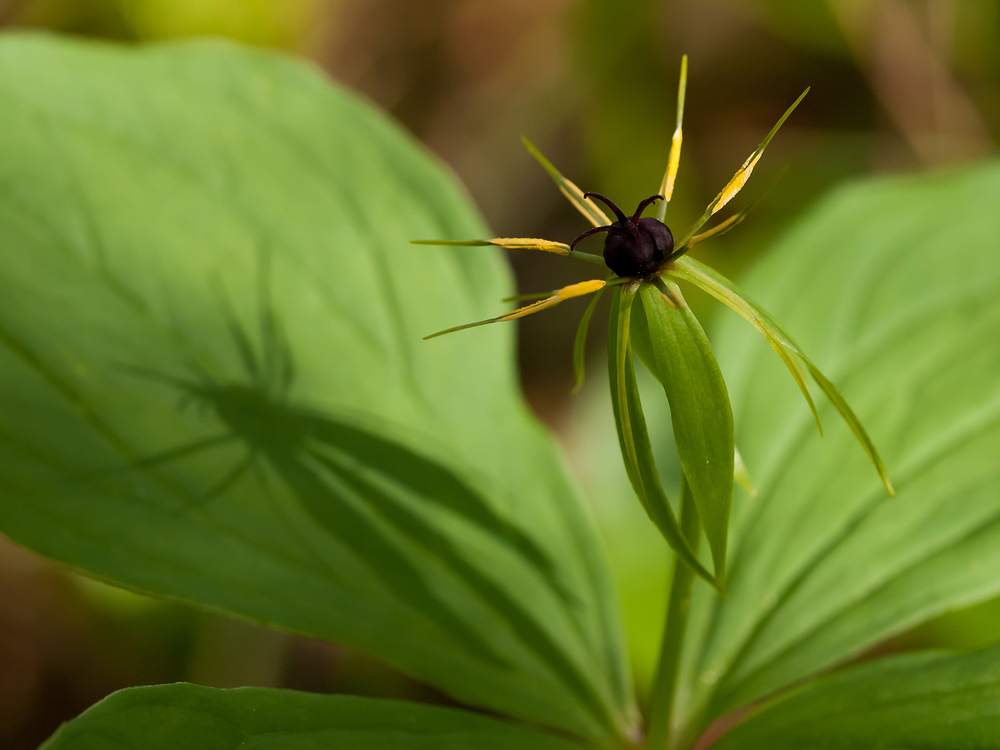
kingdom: Plantae
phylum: Tracheophyta
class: Liliopsida
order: Liliales
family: Melanthiaceae
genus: Paris
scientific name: Paris quadrifolia
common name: Herb-paris
